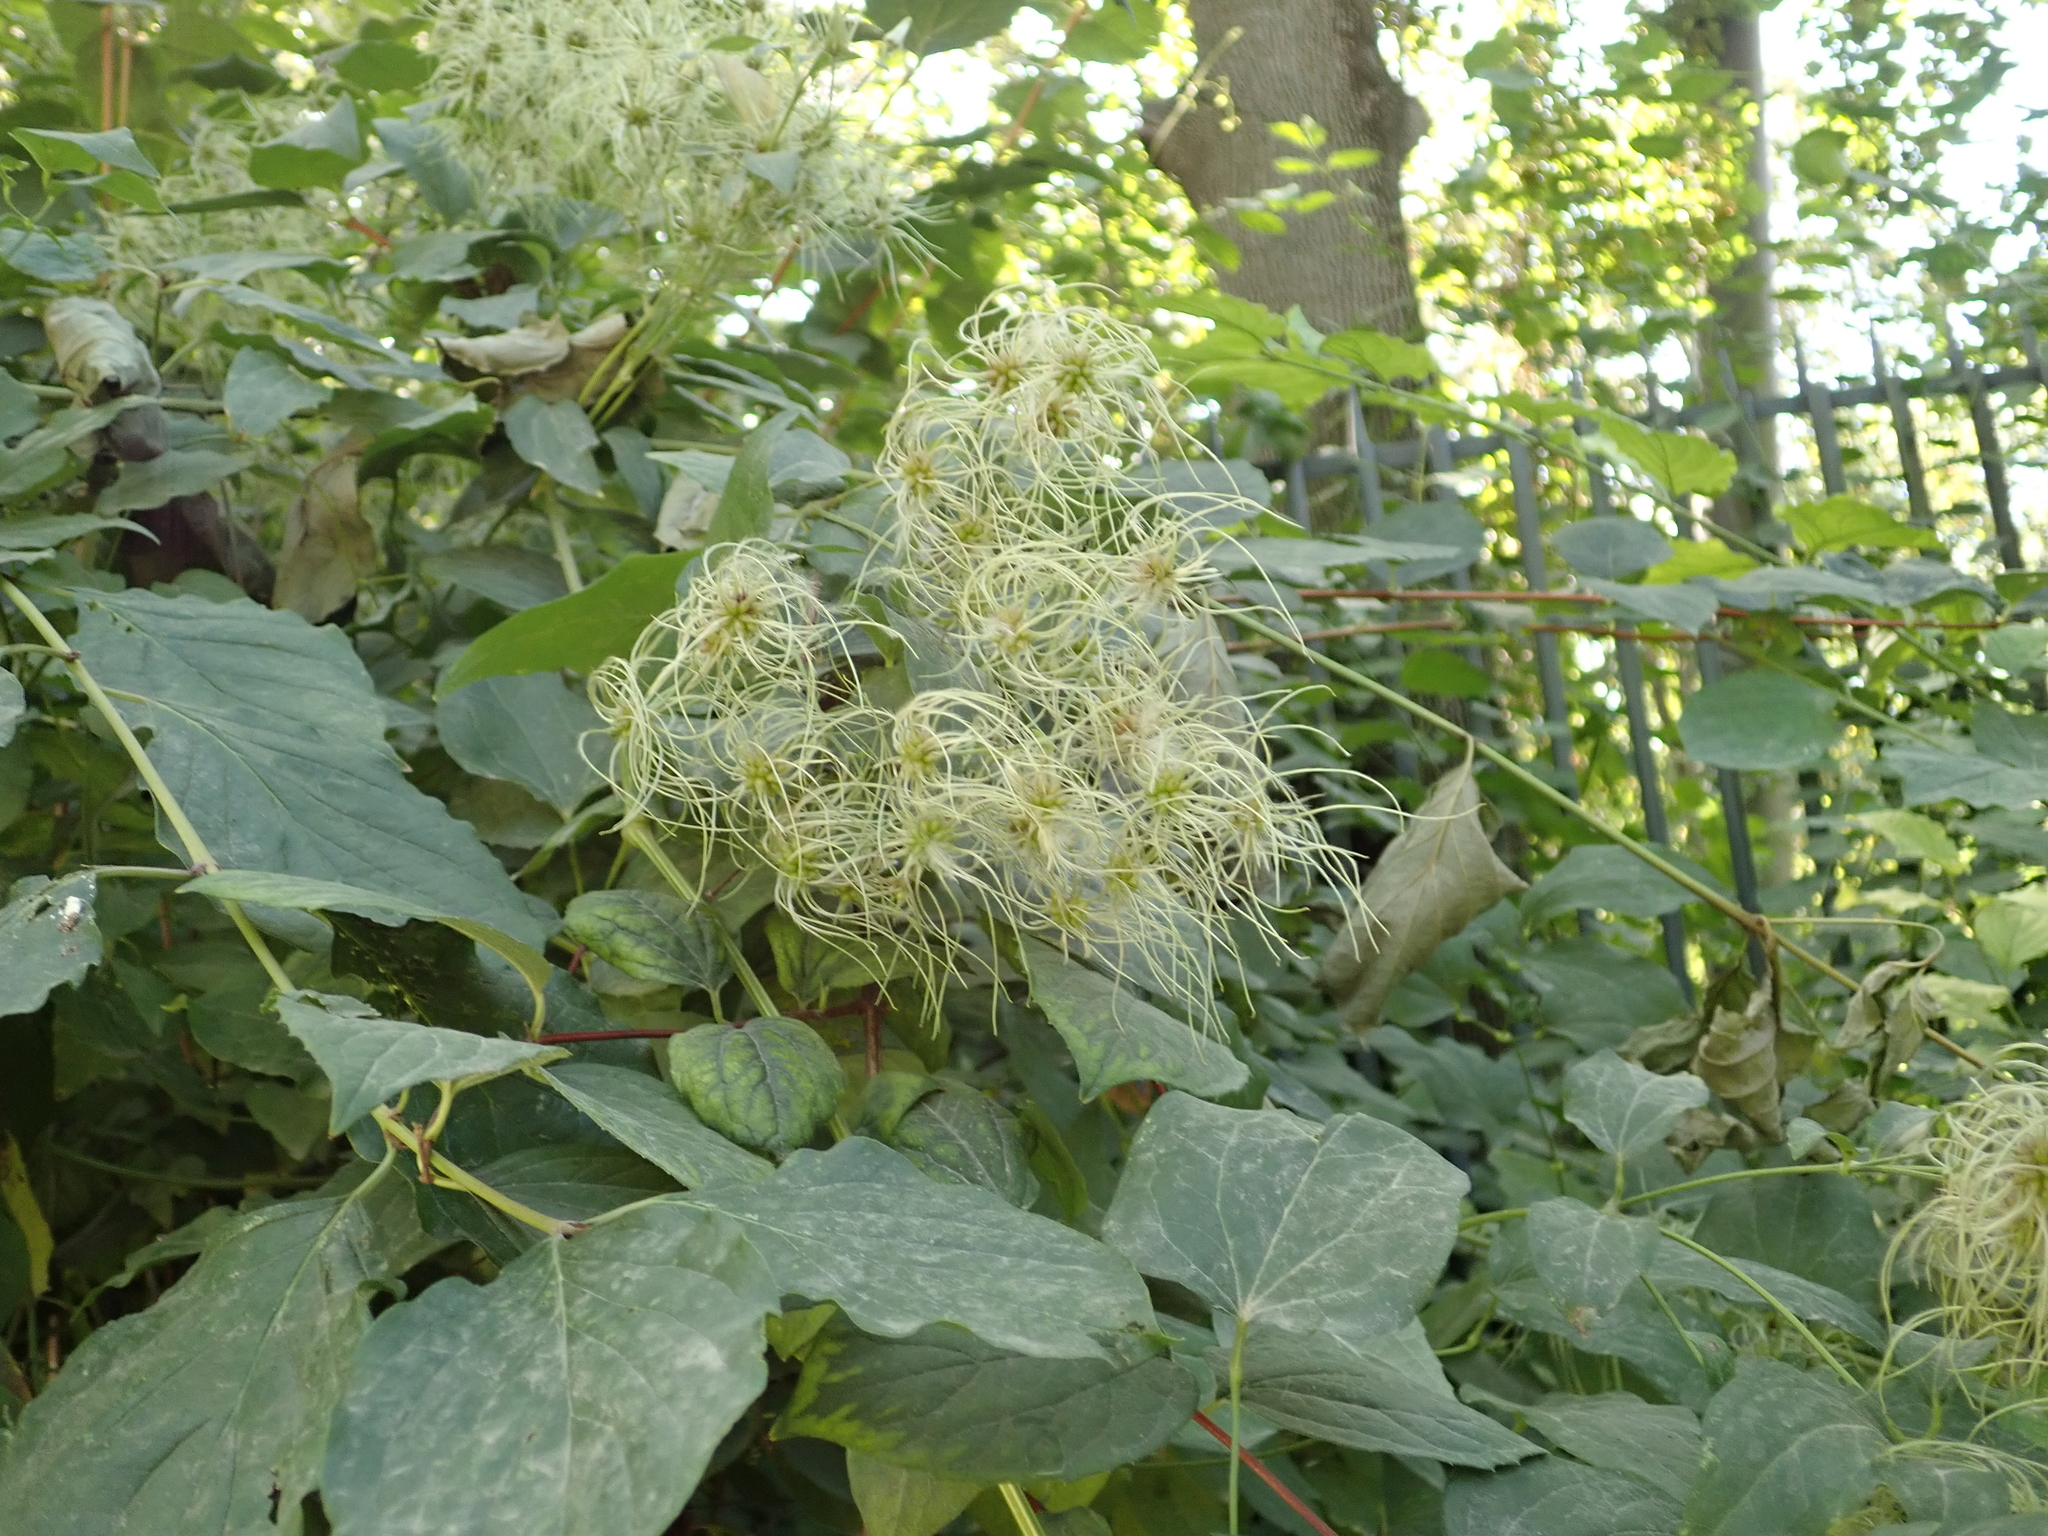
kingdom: Plantae
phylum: Tracheophyta
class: Magnoliopsida
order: Ranunculales
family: Ranunculaceae
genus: Clematis
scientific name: Clematis vitalba
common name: Evergreen clematis
